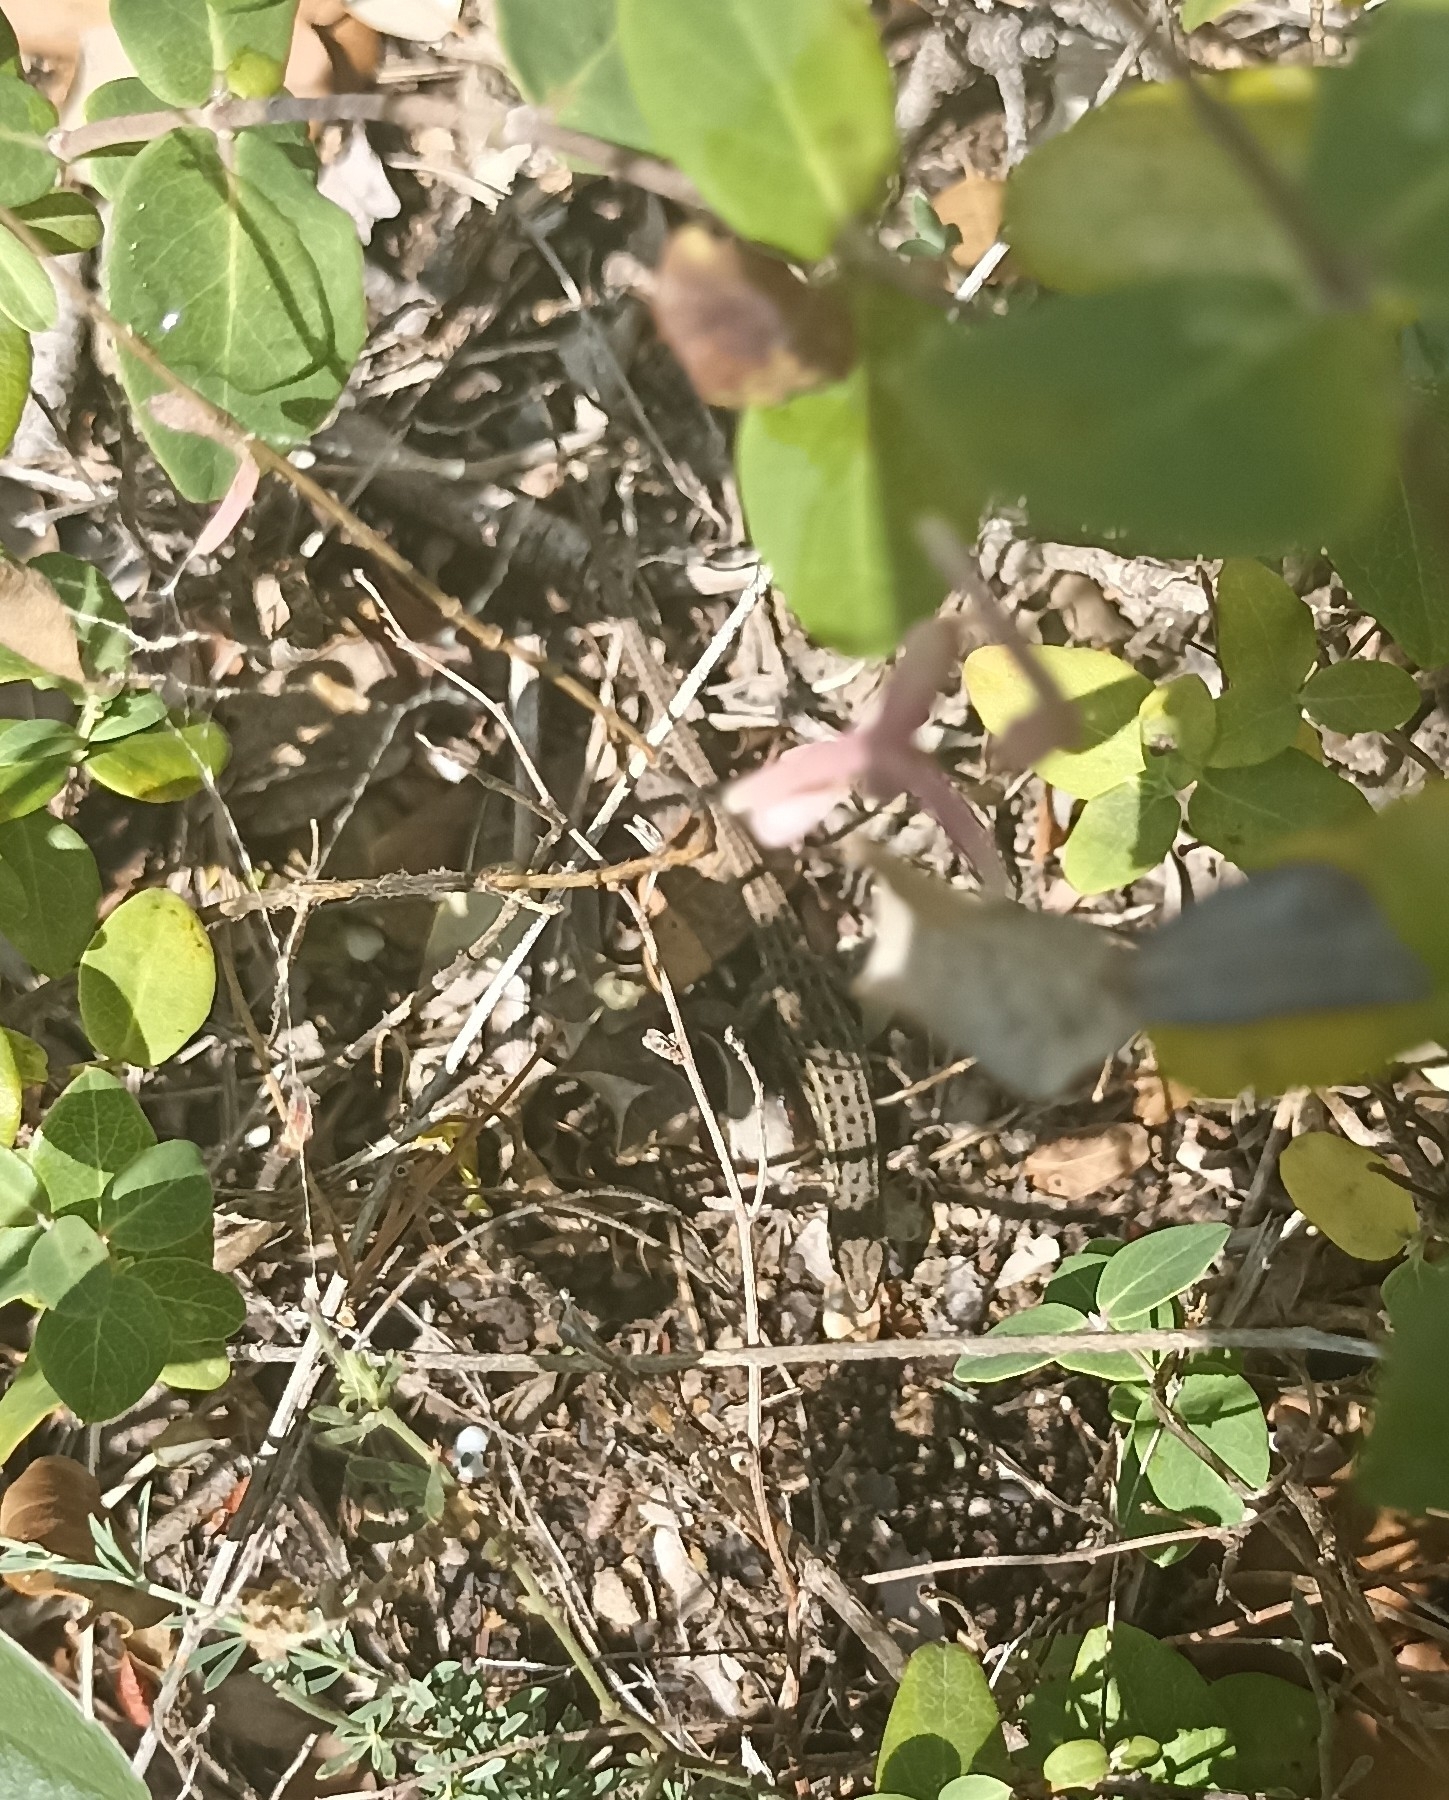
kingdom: Animalia
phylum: Chordata
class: Squamata
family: Lacertidae
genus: Psammodromus
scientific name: Psammodromus edwarsianus
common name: East iberian psammodromus
